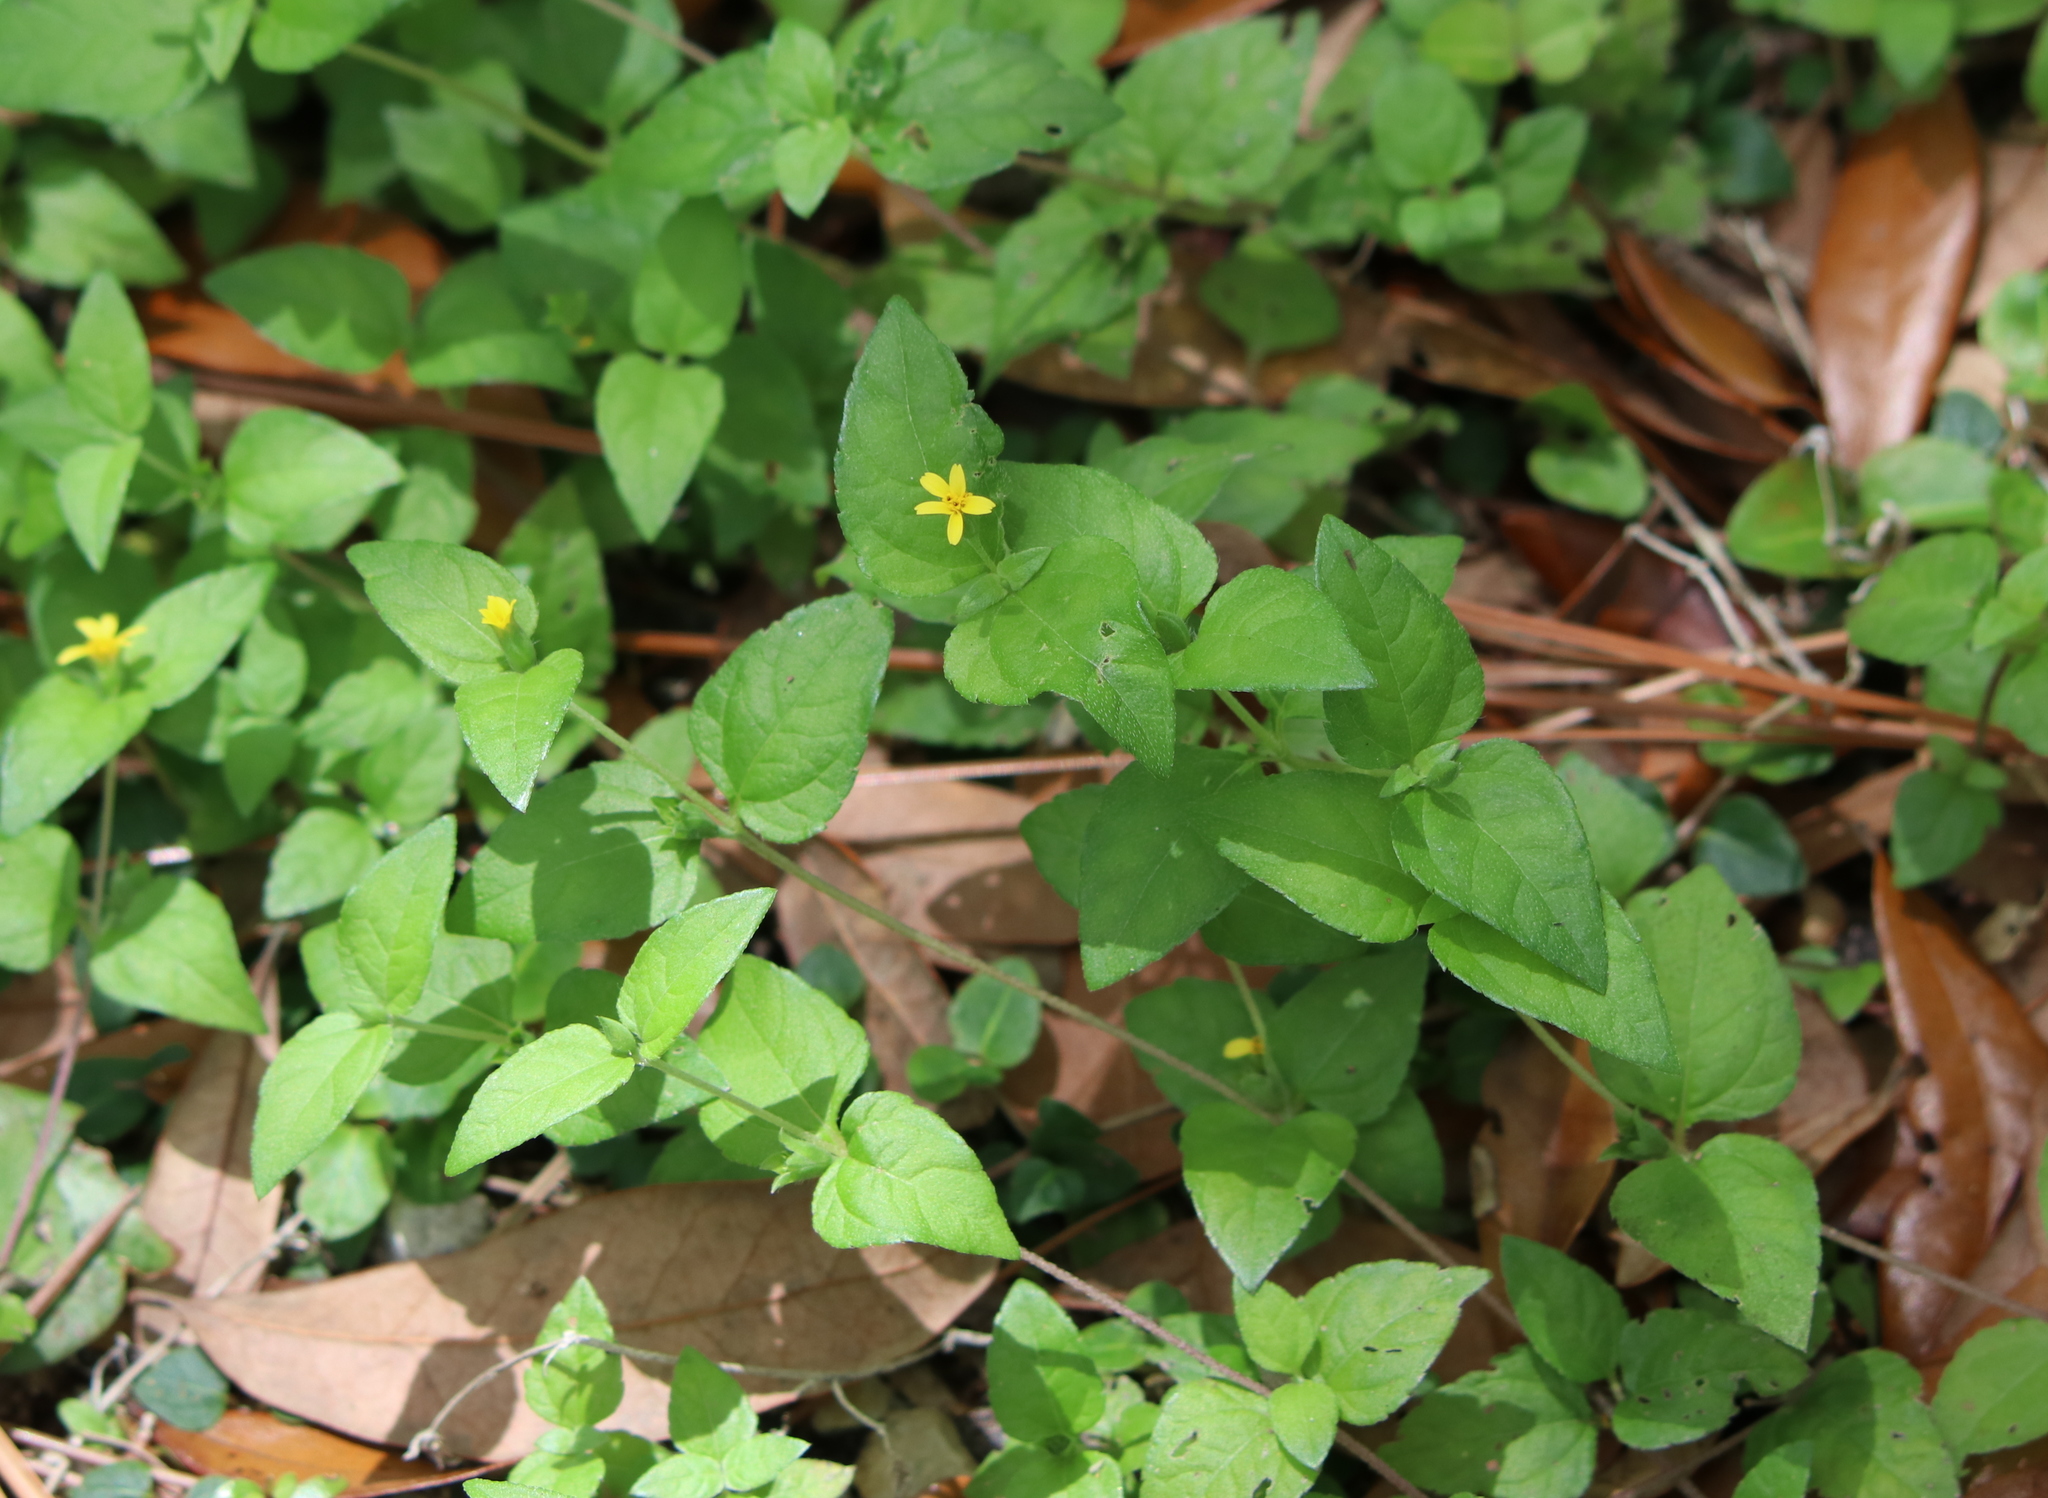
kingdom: Plantae
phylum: Tracheophyta
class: Magnoliopsida
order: Asterales
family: Asteraceae
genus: Calyptocarpus
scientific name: Calyptocarpus vialis
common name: Straggler daisy
